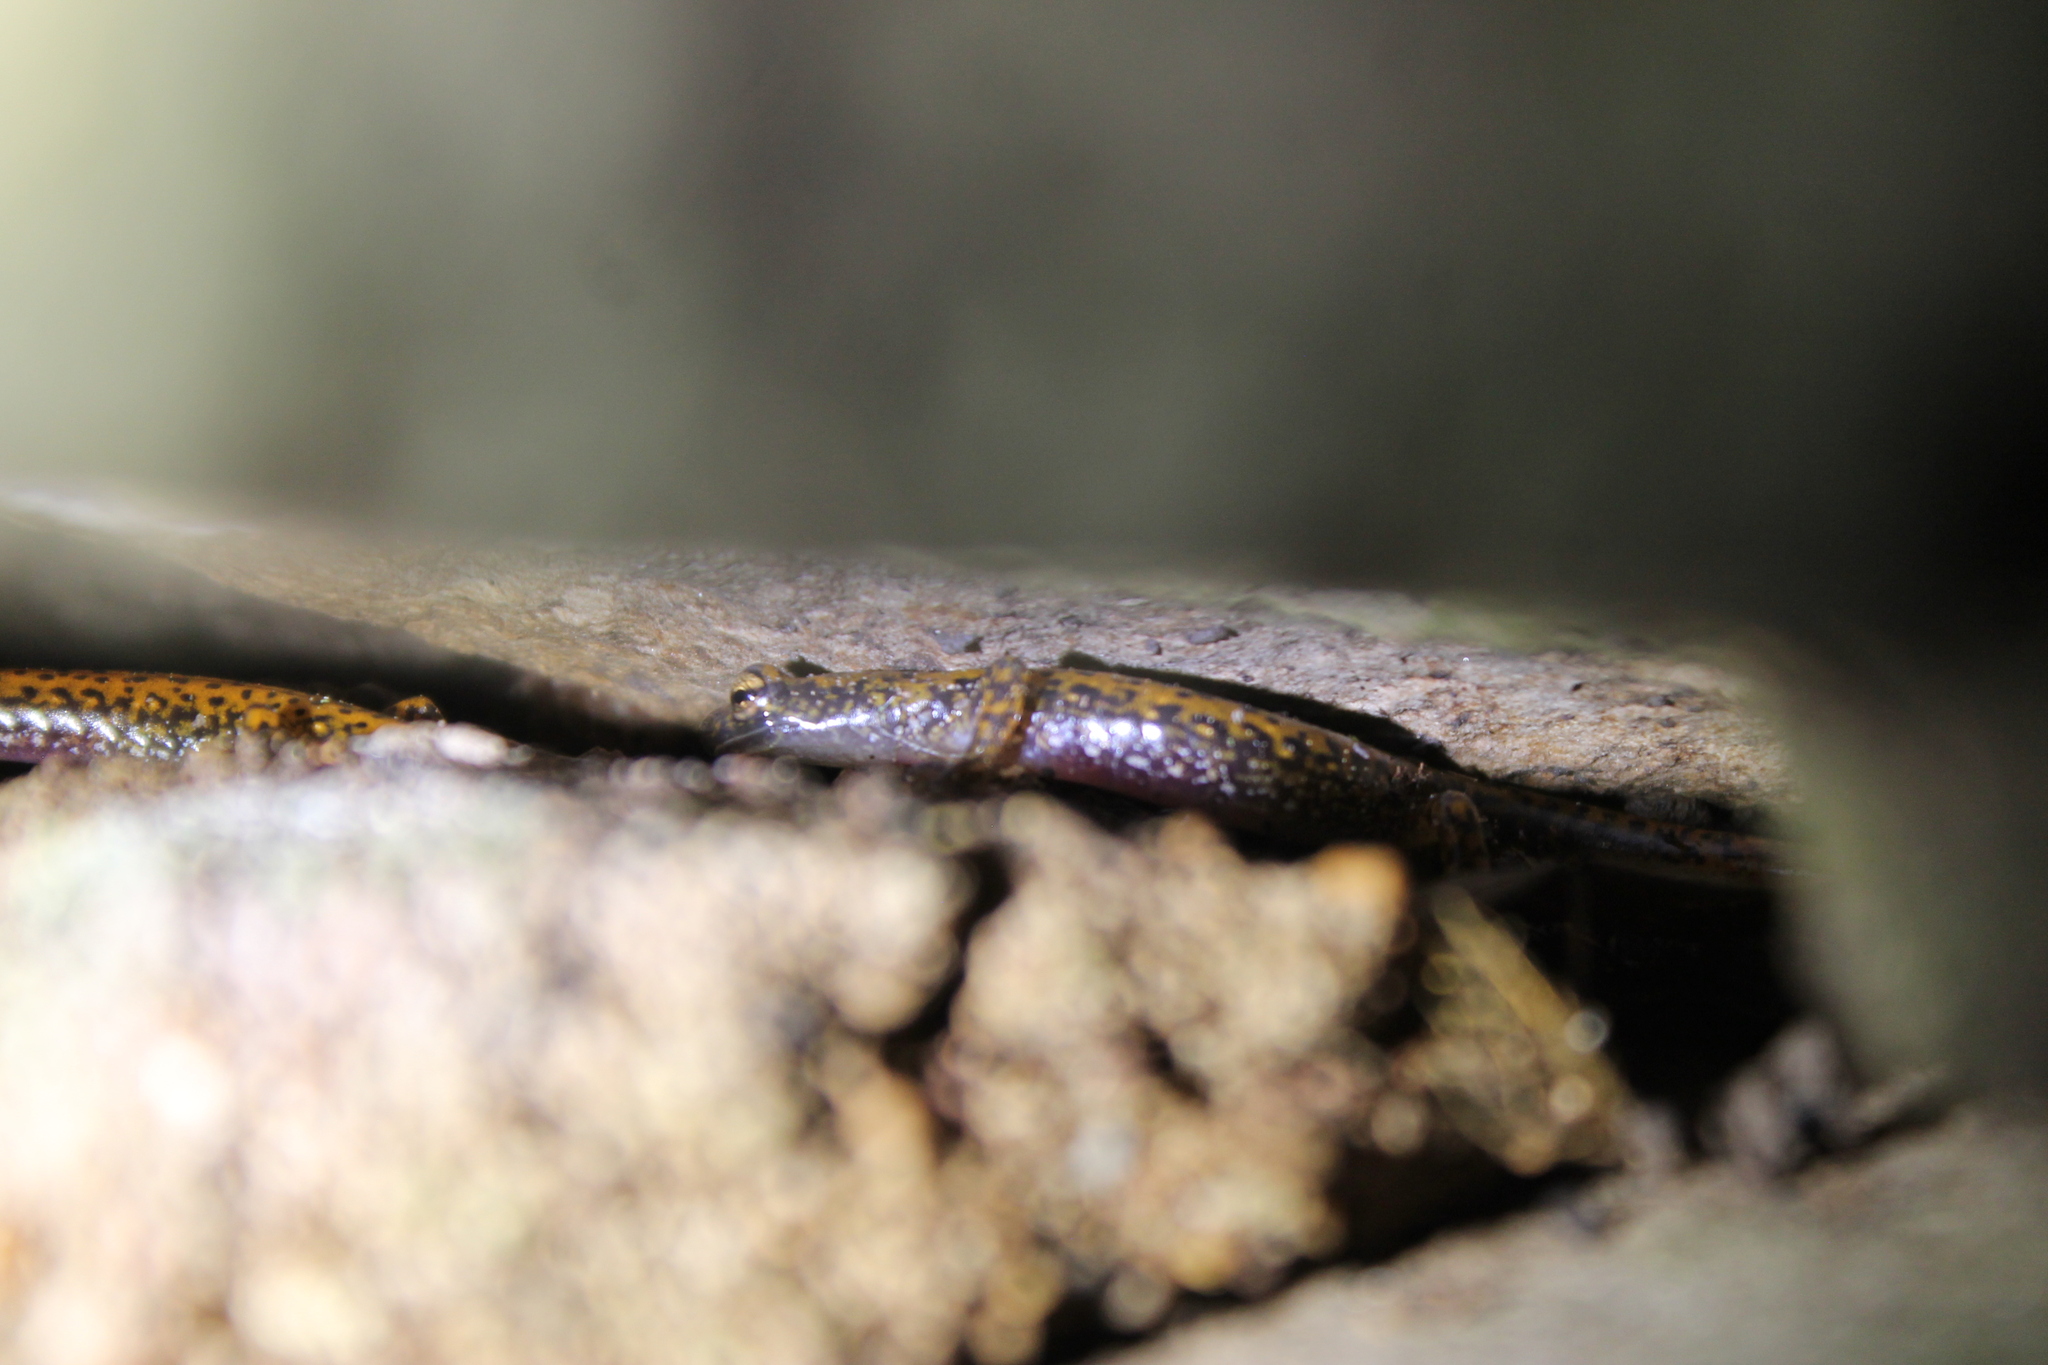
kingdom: Animalia
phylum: Chordata
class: Amphibia
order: Caudata
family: Plethodontidae
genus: Eurycea
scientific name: Eurycea lucifuga
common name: Cave salamander
